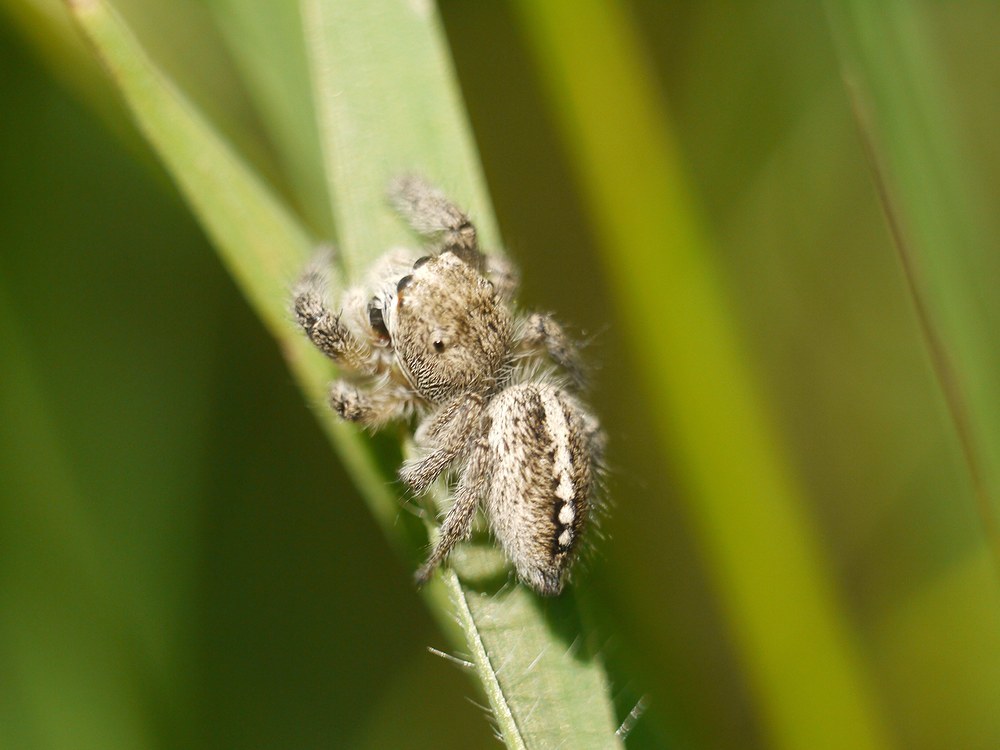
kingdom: Animalia
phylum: Arthropoda
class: Arachnida
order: Araneae
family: Salticidae
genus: Pellenes
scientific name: Pellenes seriatus
